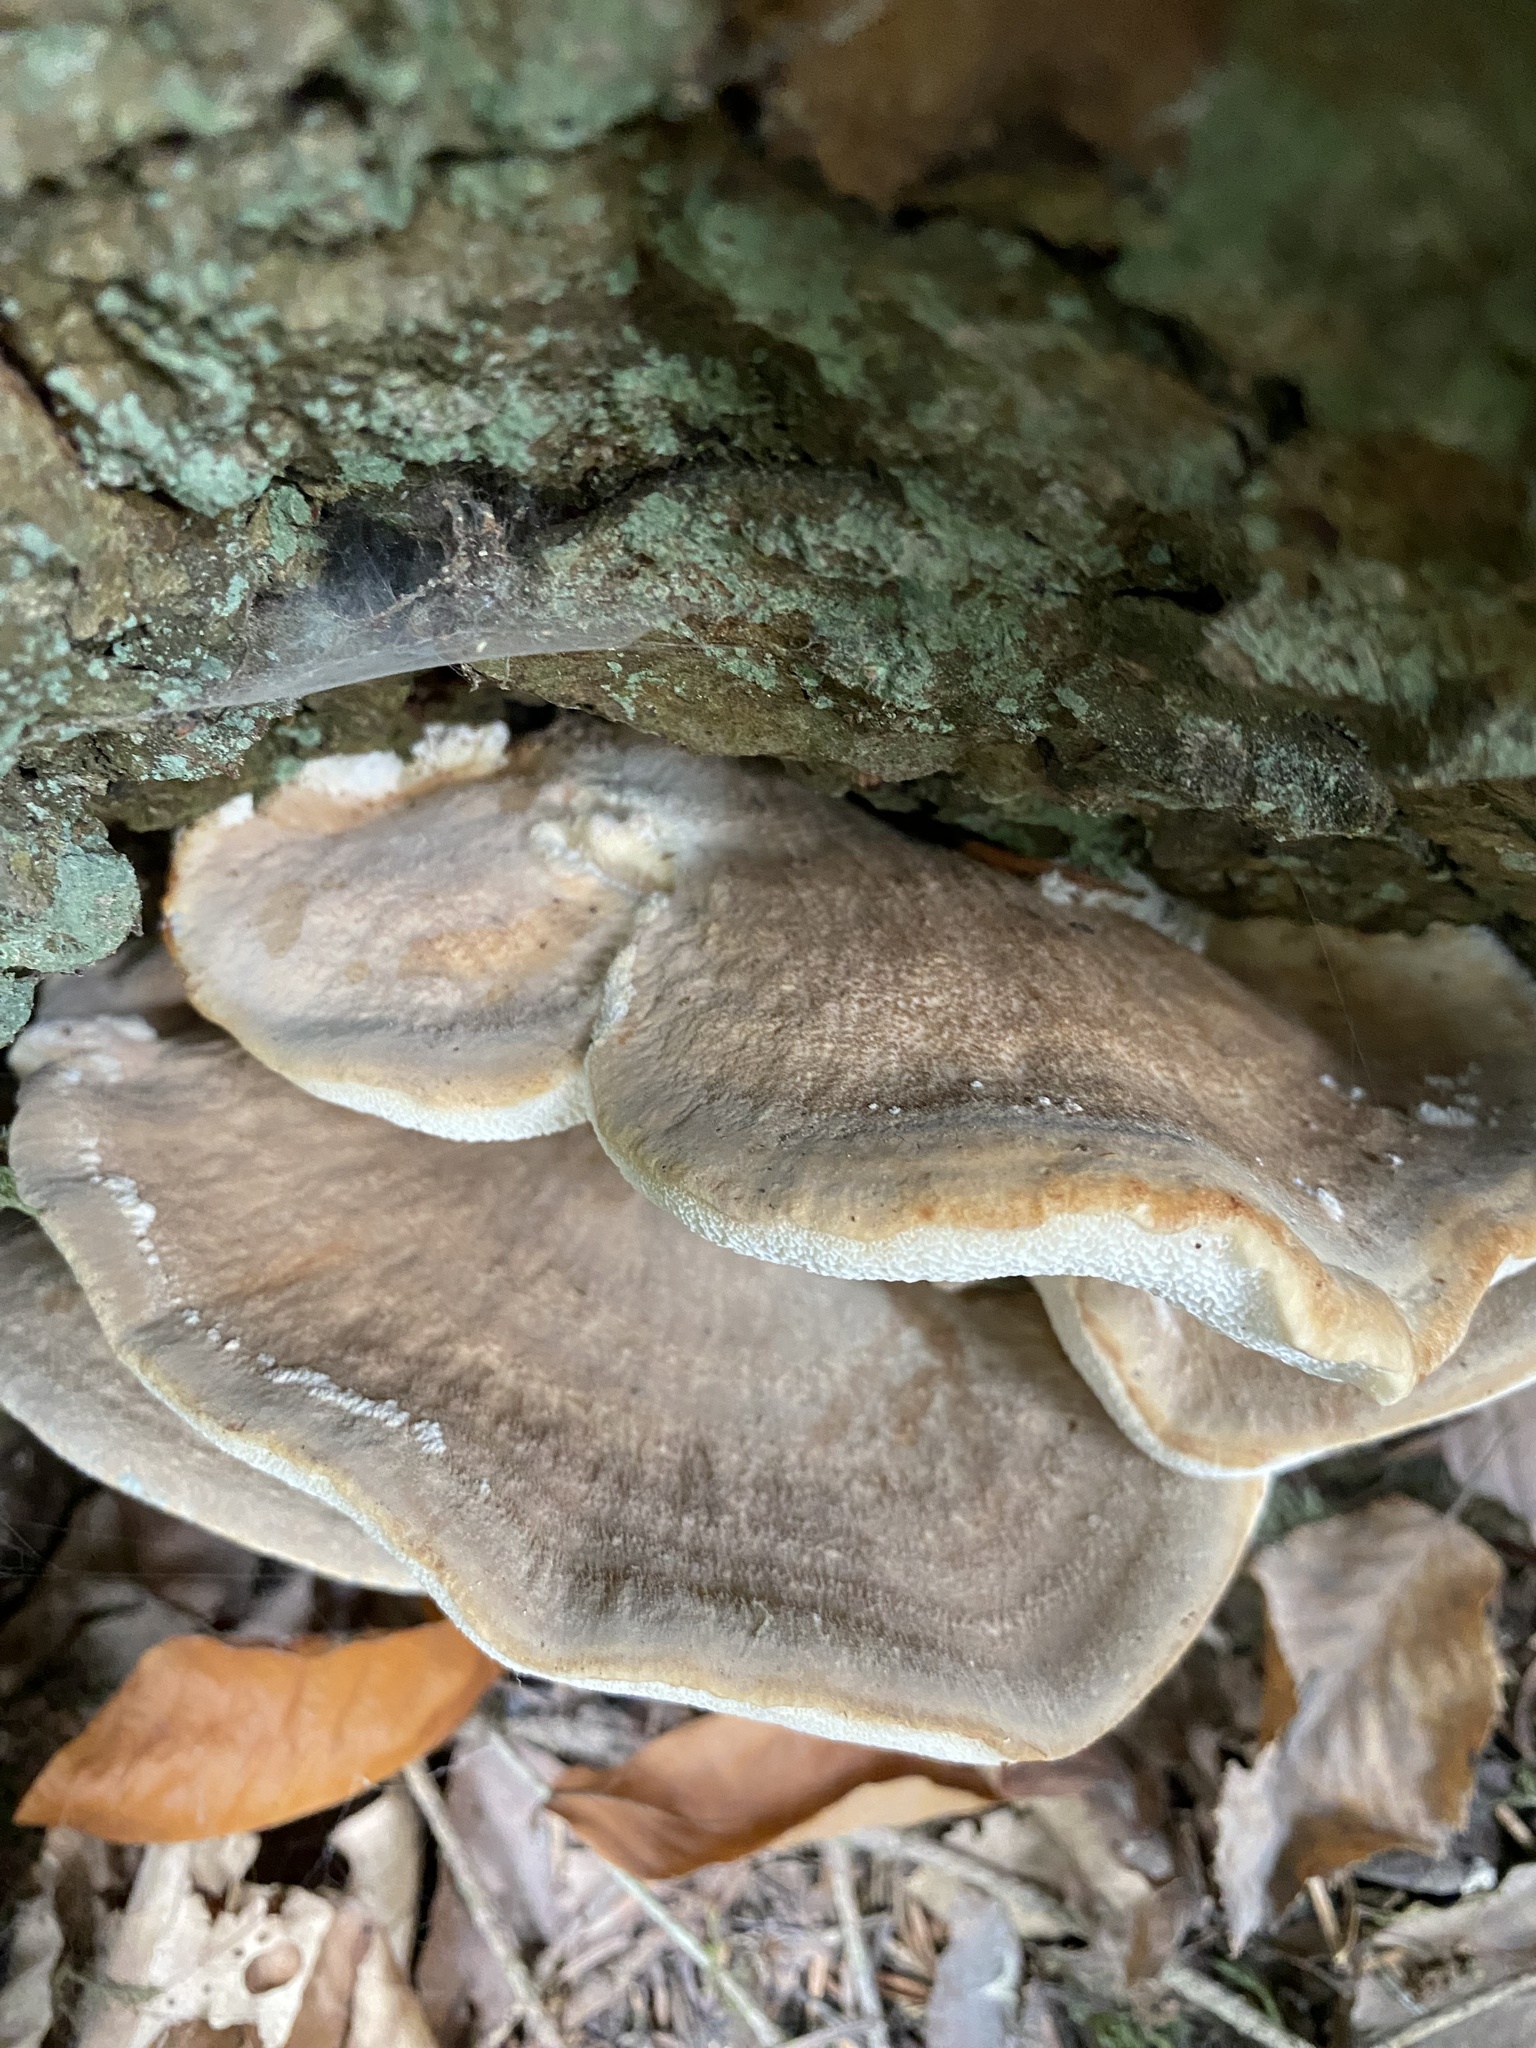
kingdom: Fungi
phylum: Basidiomycota
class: Agaricomycetes
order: Polyporales
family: Meripilaceae
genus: Meripilus
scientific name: Meripilus giganteus
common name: Giant polypore
